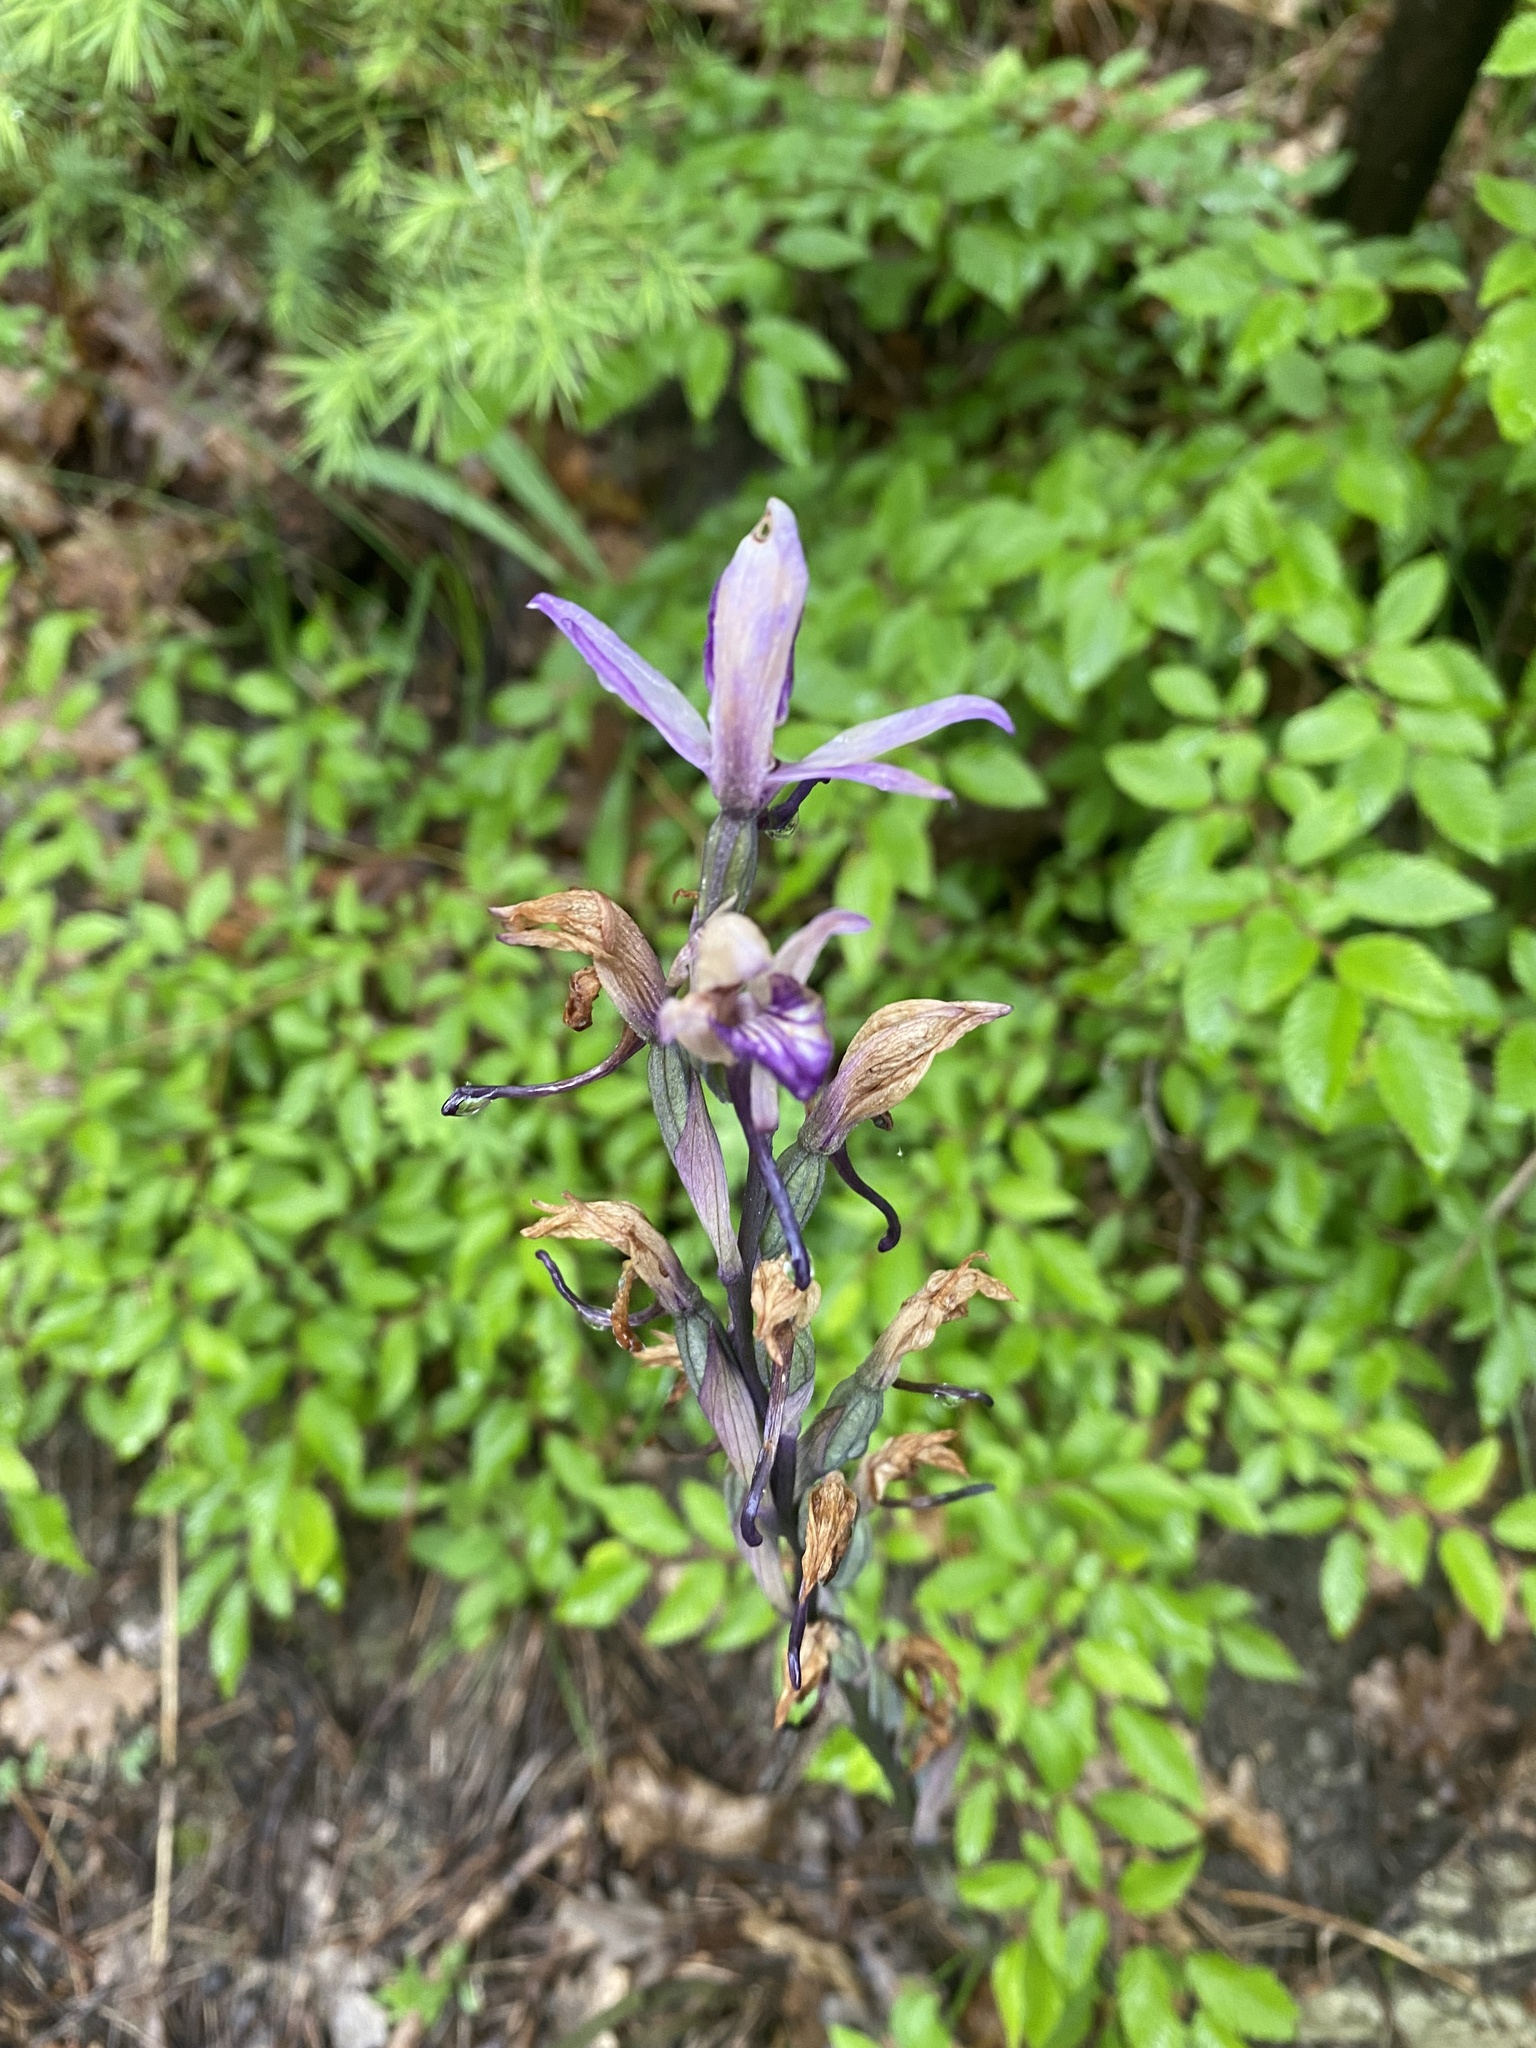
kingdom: Plantae
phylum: Tracheophyta
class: Liliopsida
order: Asparagales
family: Orchidaceae
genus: Limodorum
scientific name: Limodorum abortivum
